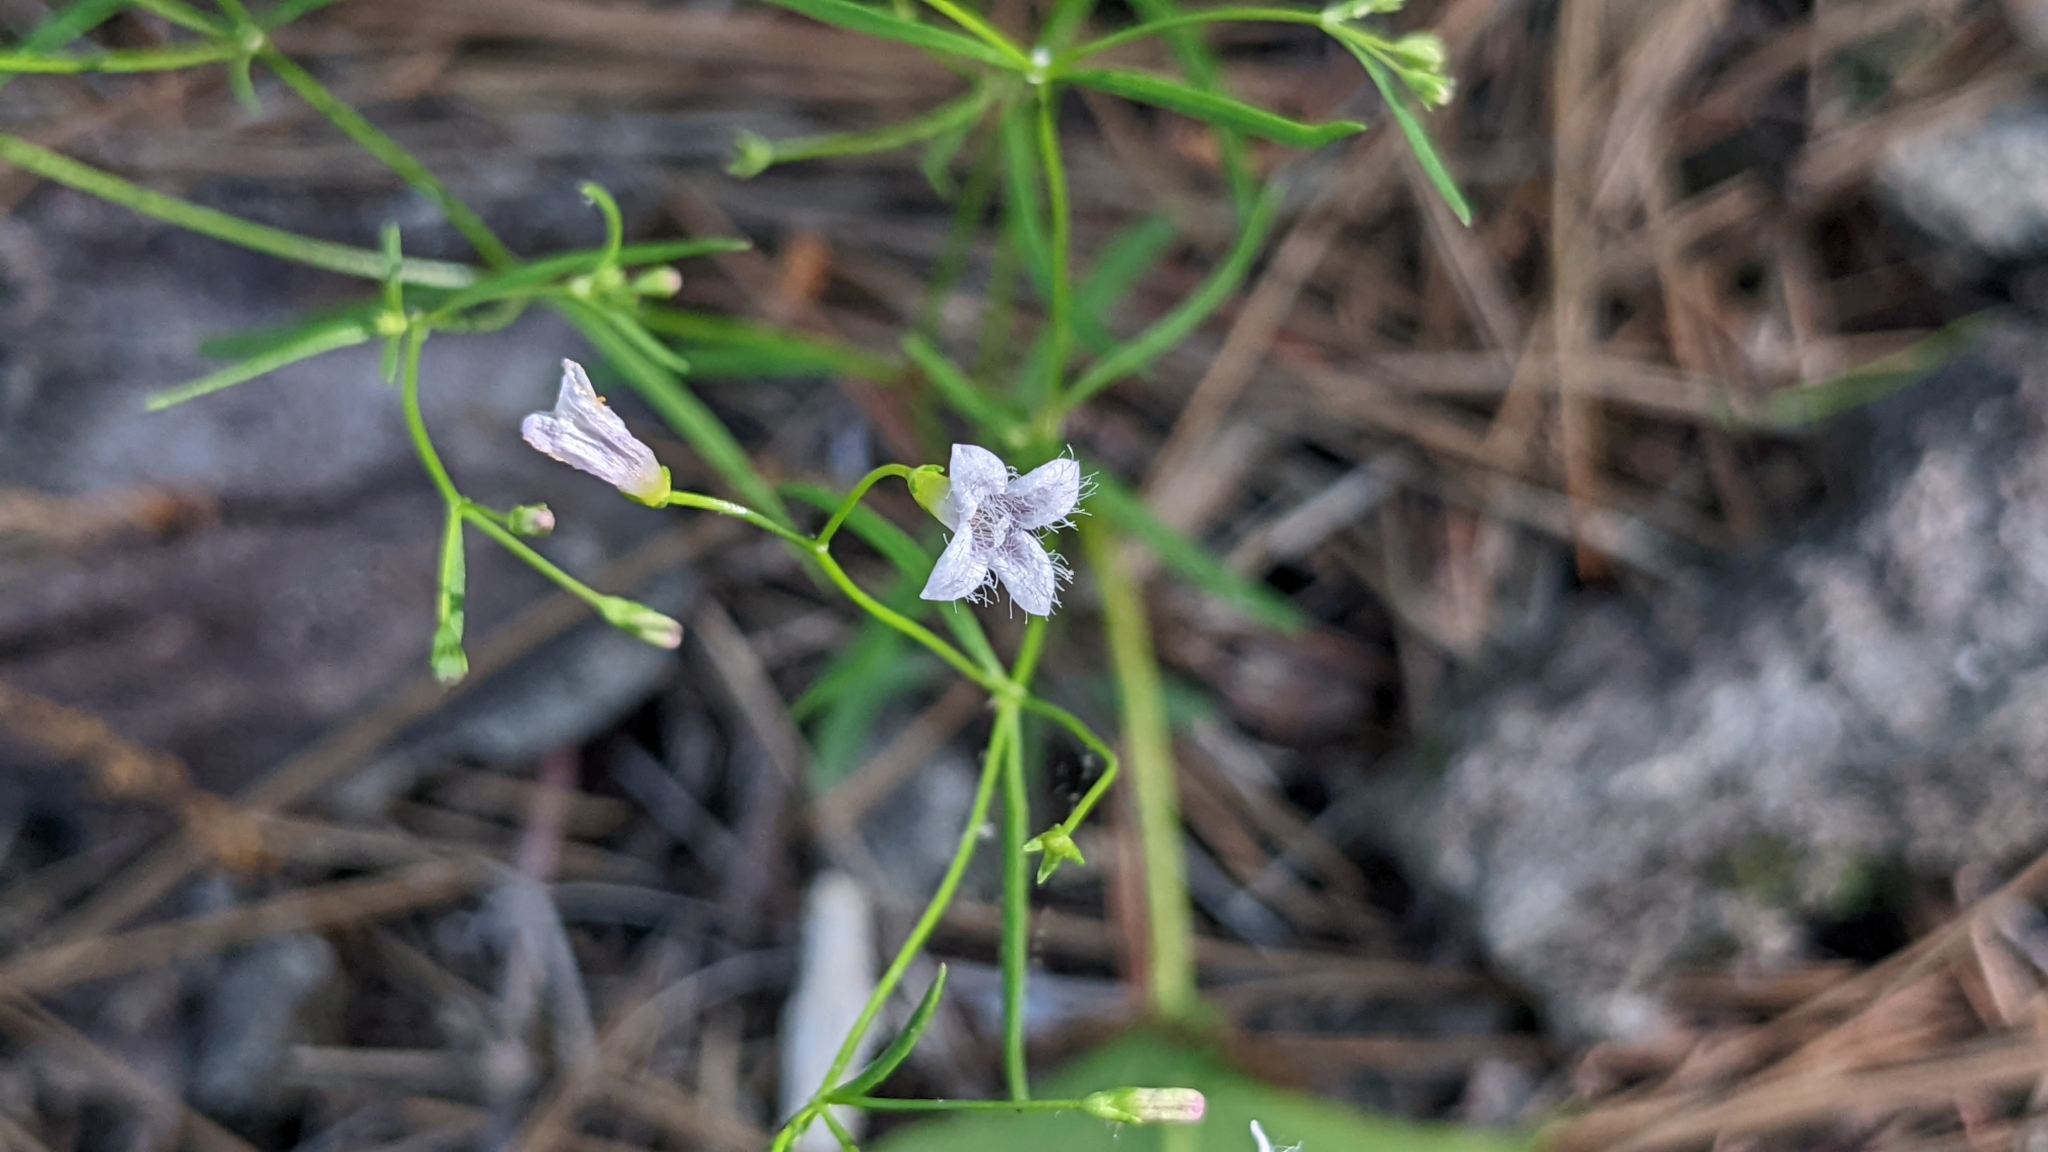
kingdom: Plantae
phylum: Tracheophyta
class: Magnoliopsida
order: Gentianales
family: Rubiaceae
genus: Houstonia
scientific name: Houstonia ouachitana
